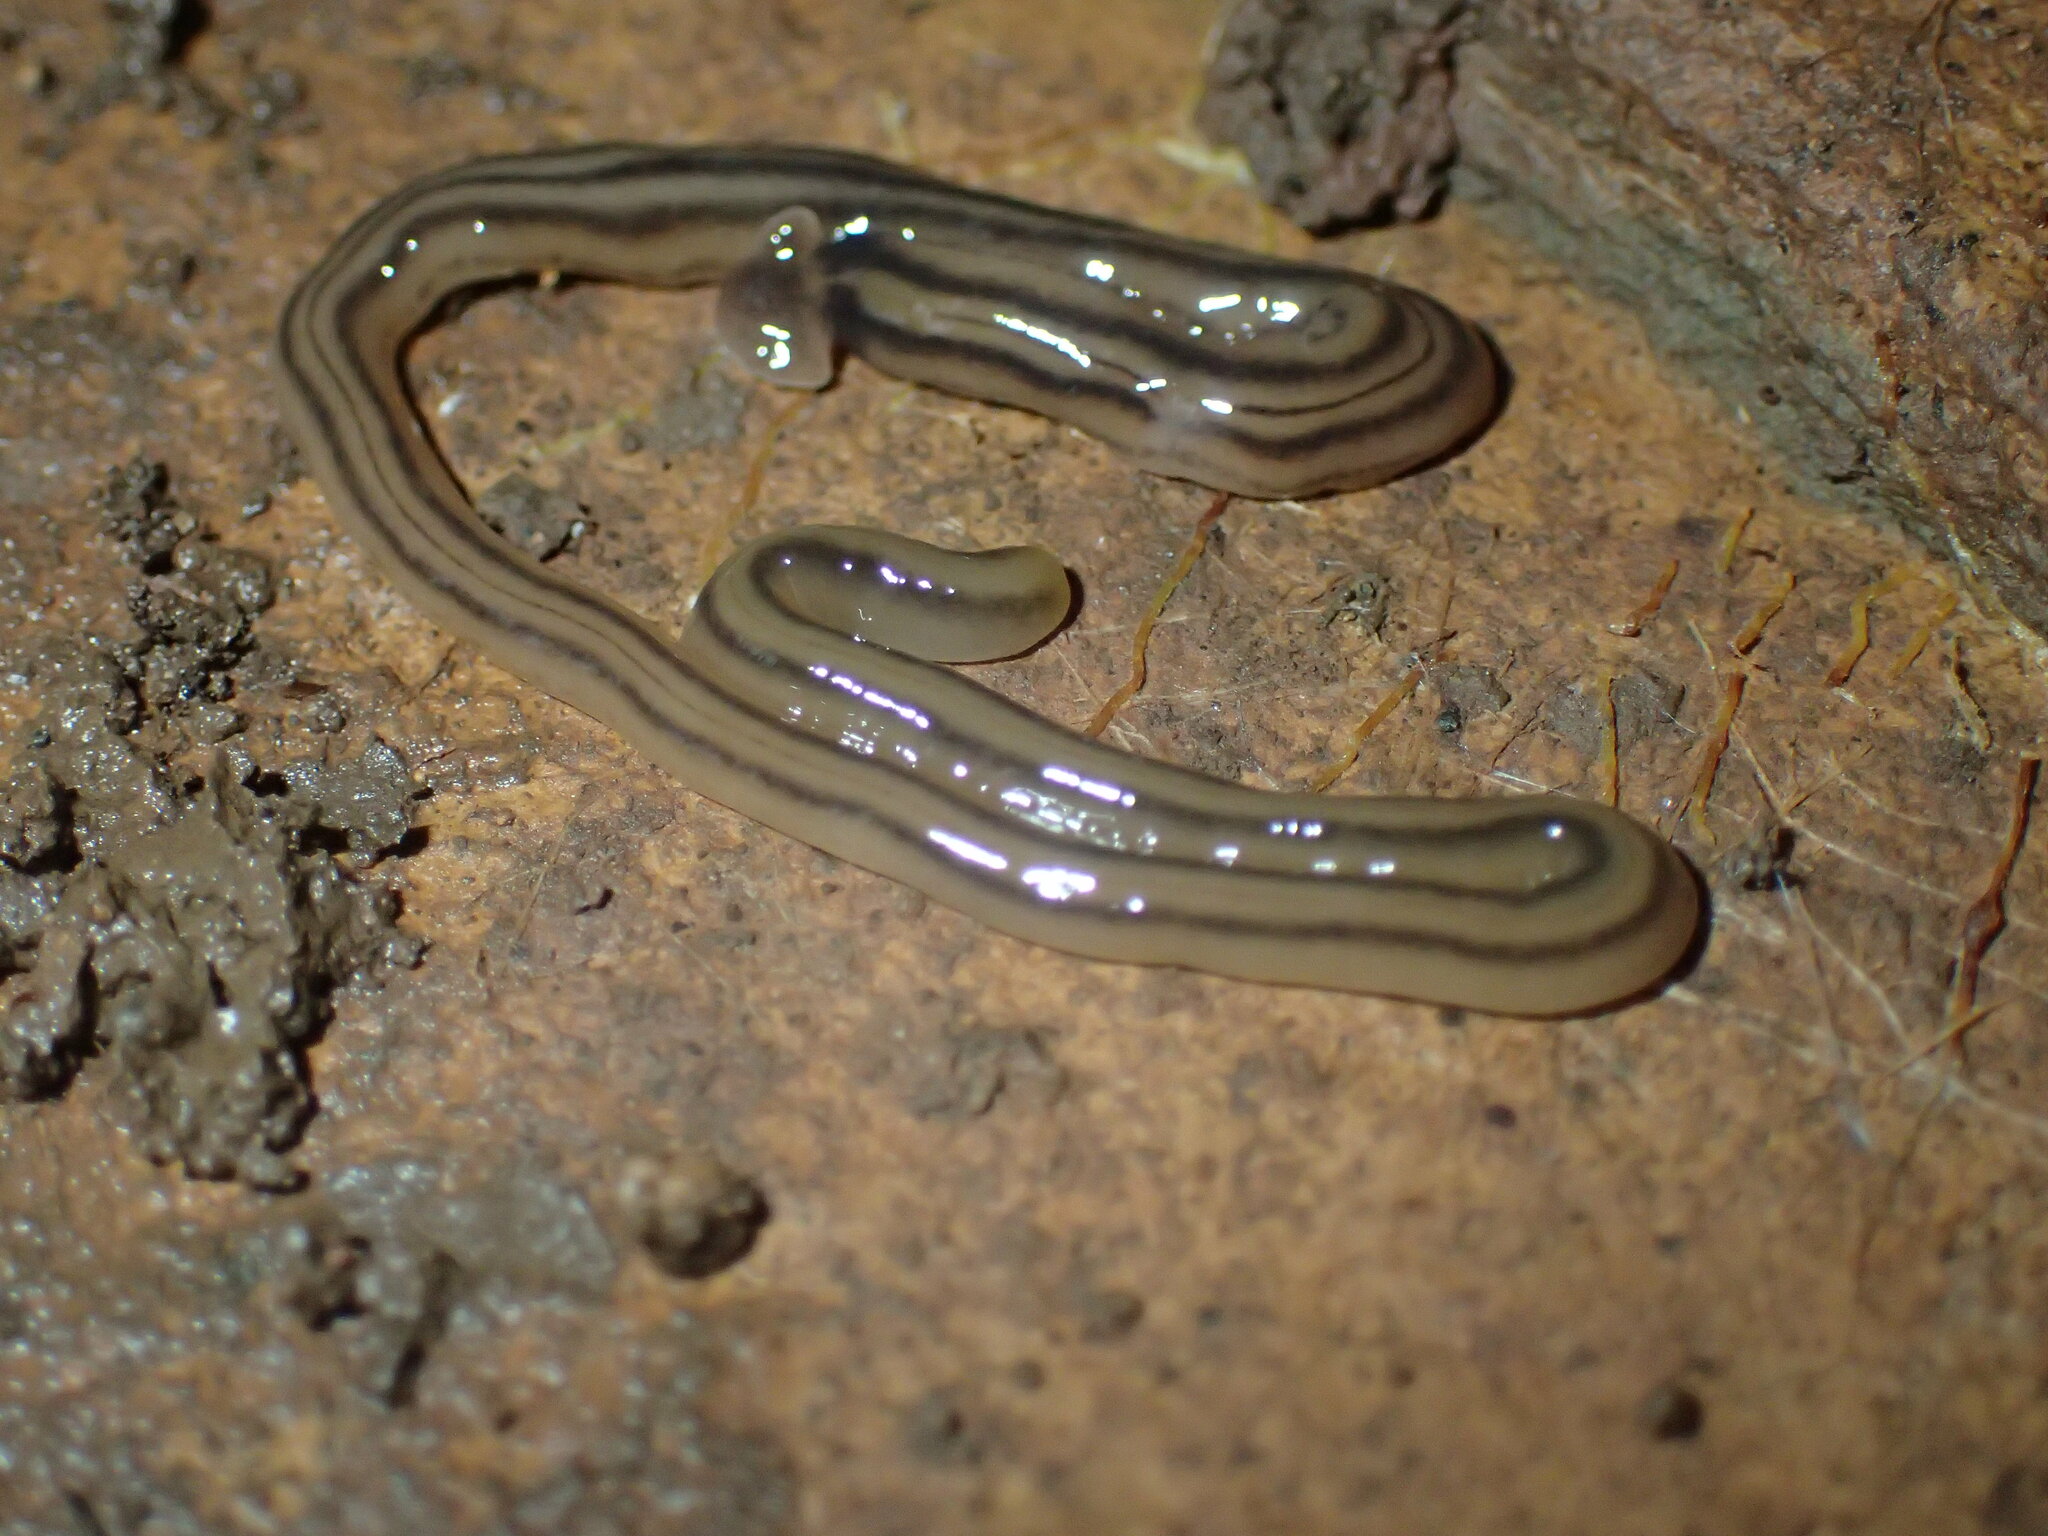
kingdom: Animalia
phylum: Platyhelminthes
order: Tricladida
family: Geoplanidae
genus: Bipalium
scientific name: Bipalium kewense
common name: Hammerhead flatworm
